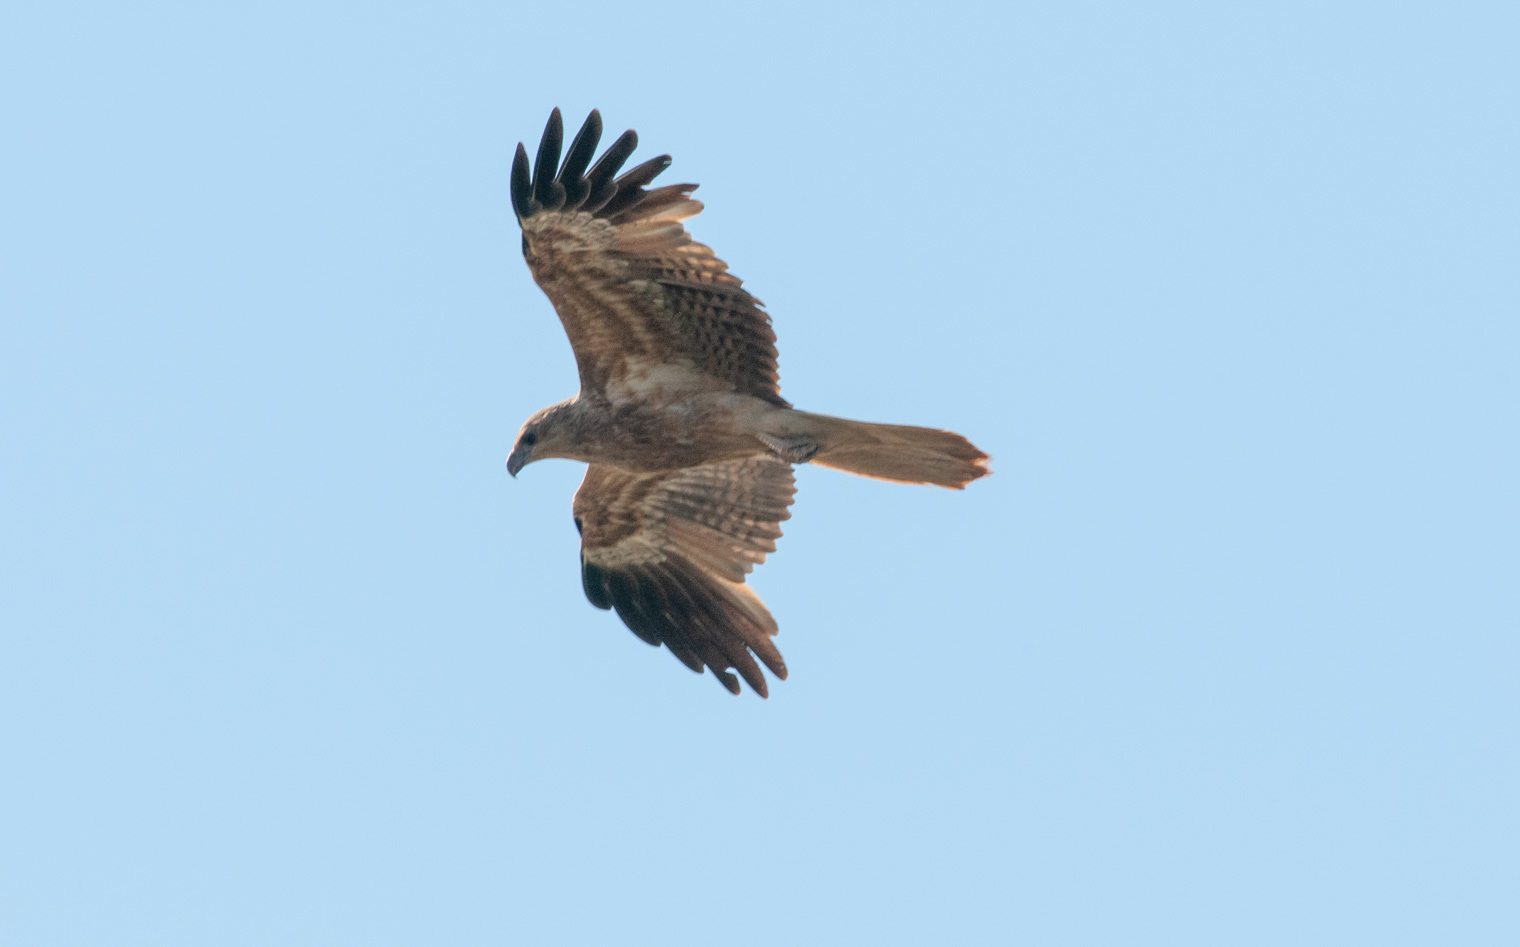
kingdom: Animalia
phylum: Chordata
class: Aves
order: Accipitriformes
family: Accipitridae
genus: Haliastur
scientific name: Haliastur sphenurus
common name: Whistling kite
